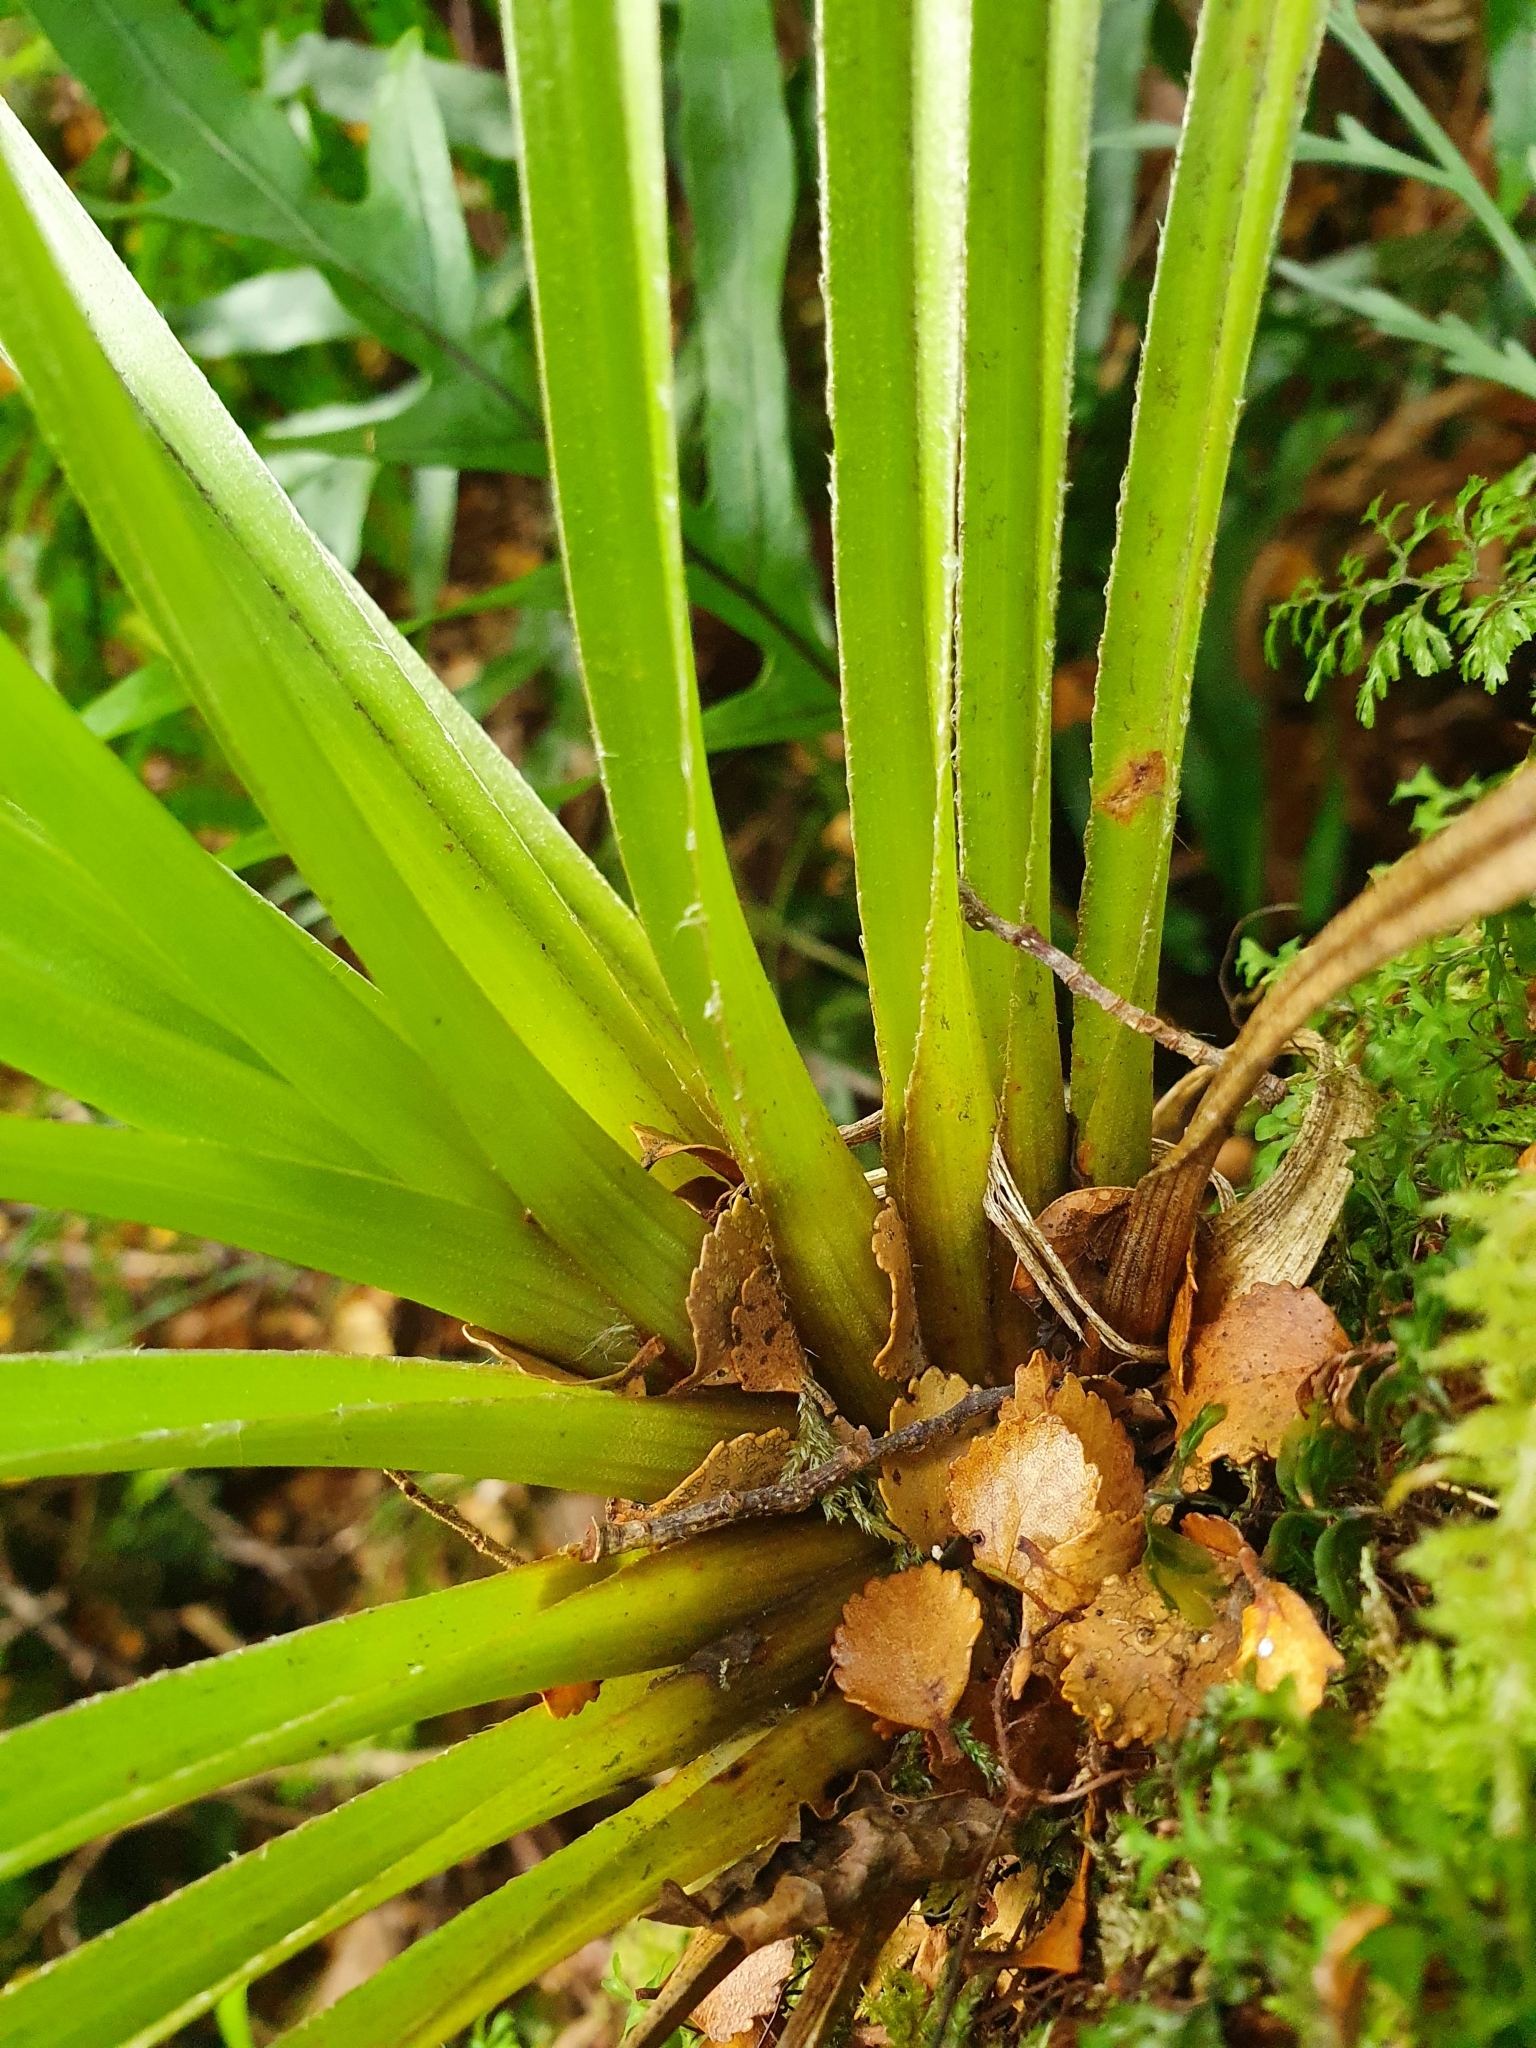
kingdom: Plantae
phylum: Tracheophyta
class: Liliopsida
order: Asparagales
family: Asteliaceae
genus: Astelia
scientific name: Astelia microsperma
